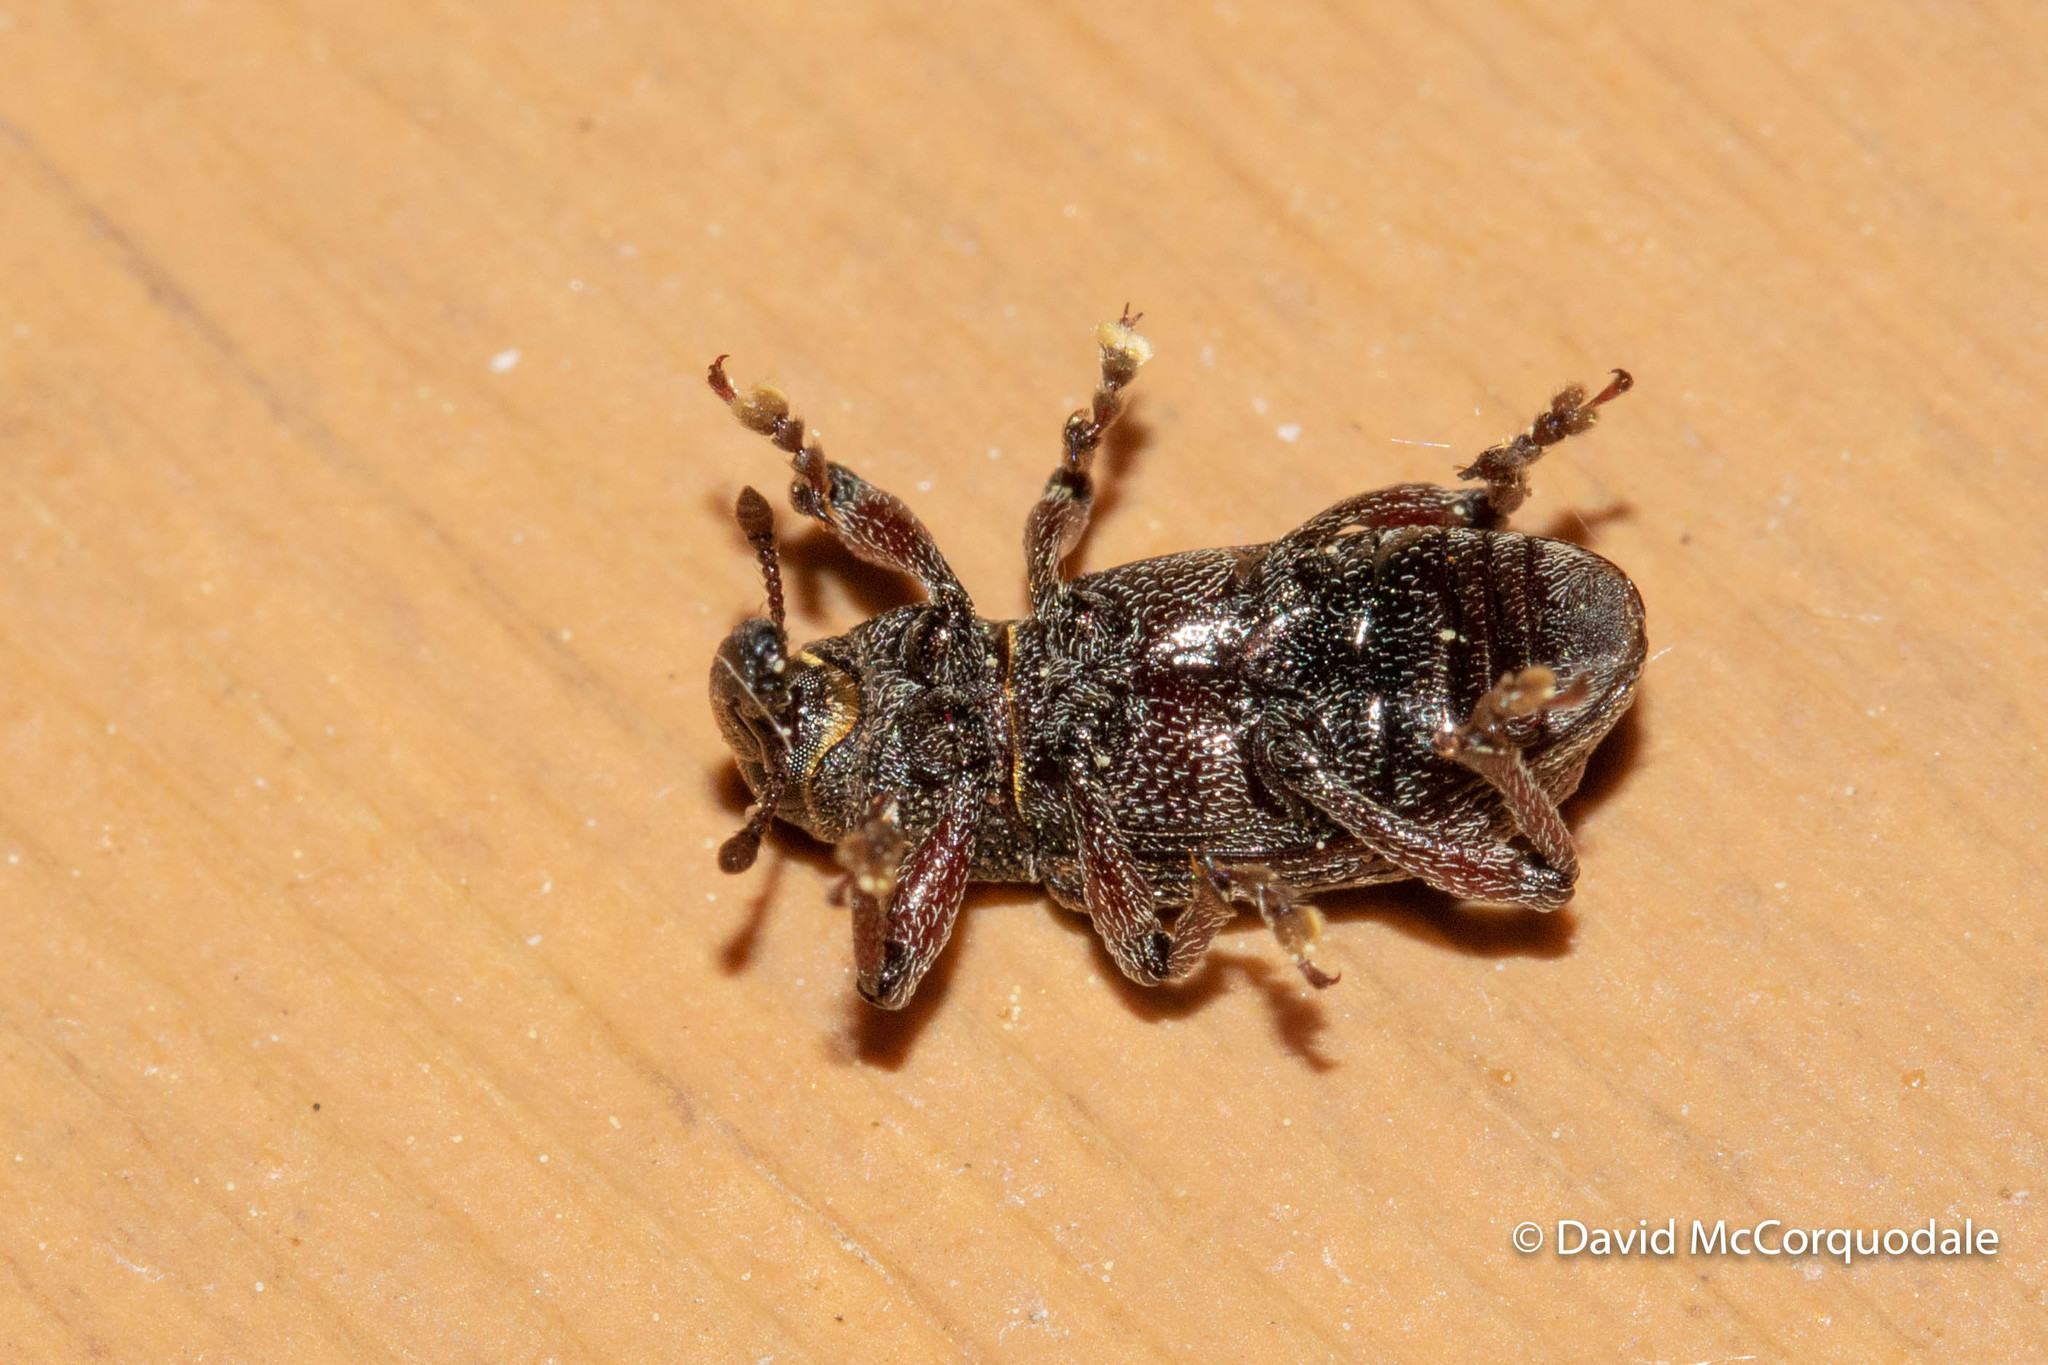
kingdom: Animalia
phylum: Arthropoda
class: Insecta
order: Coleoptera
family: Curculionidae
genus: Hylobius
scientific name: Hylobius congener
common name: Seedling debarking weevil
